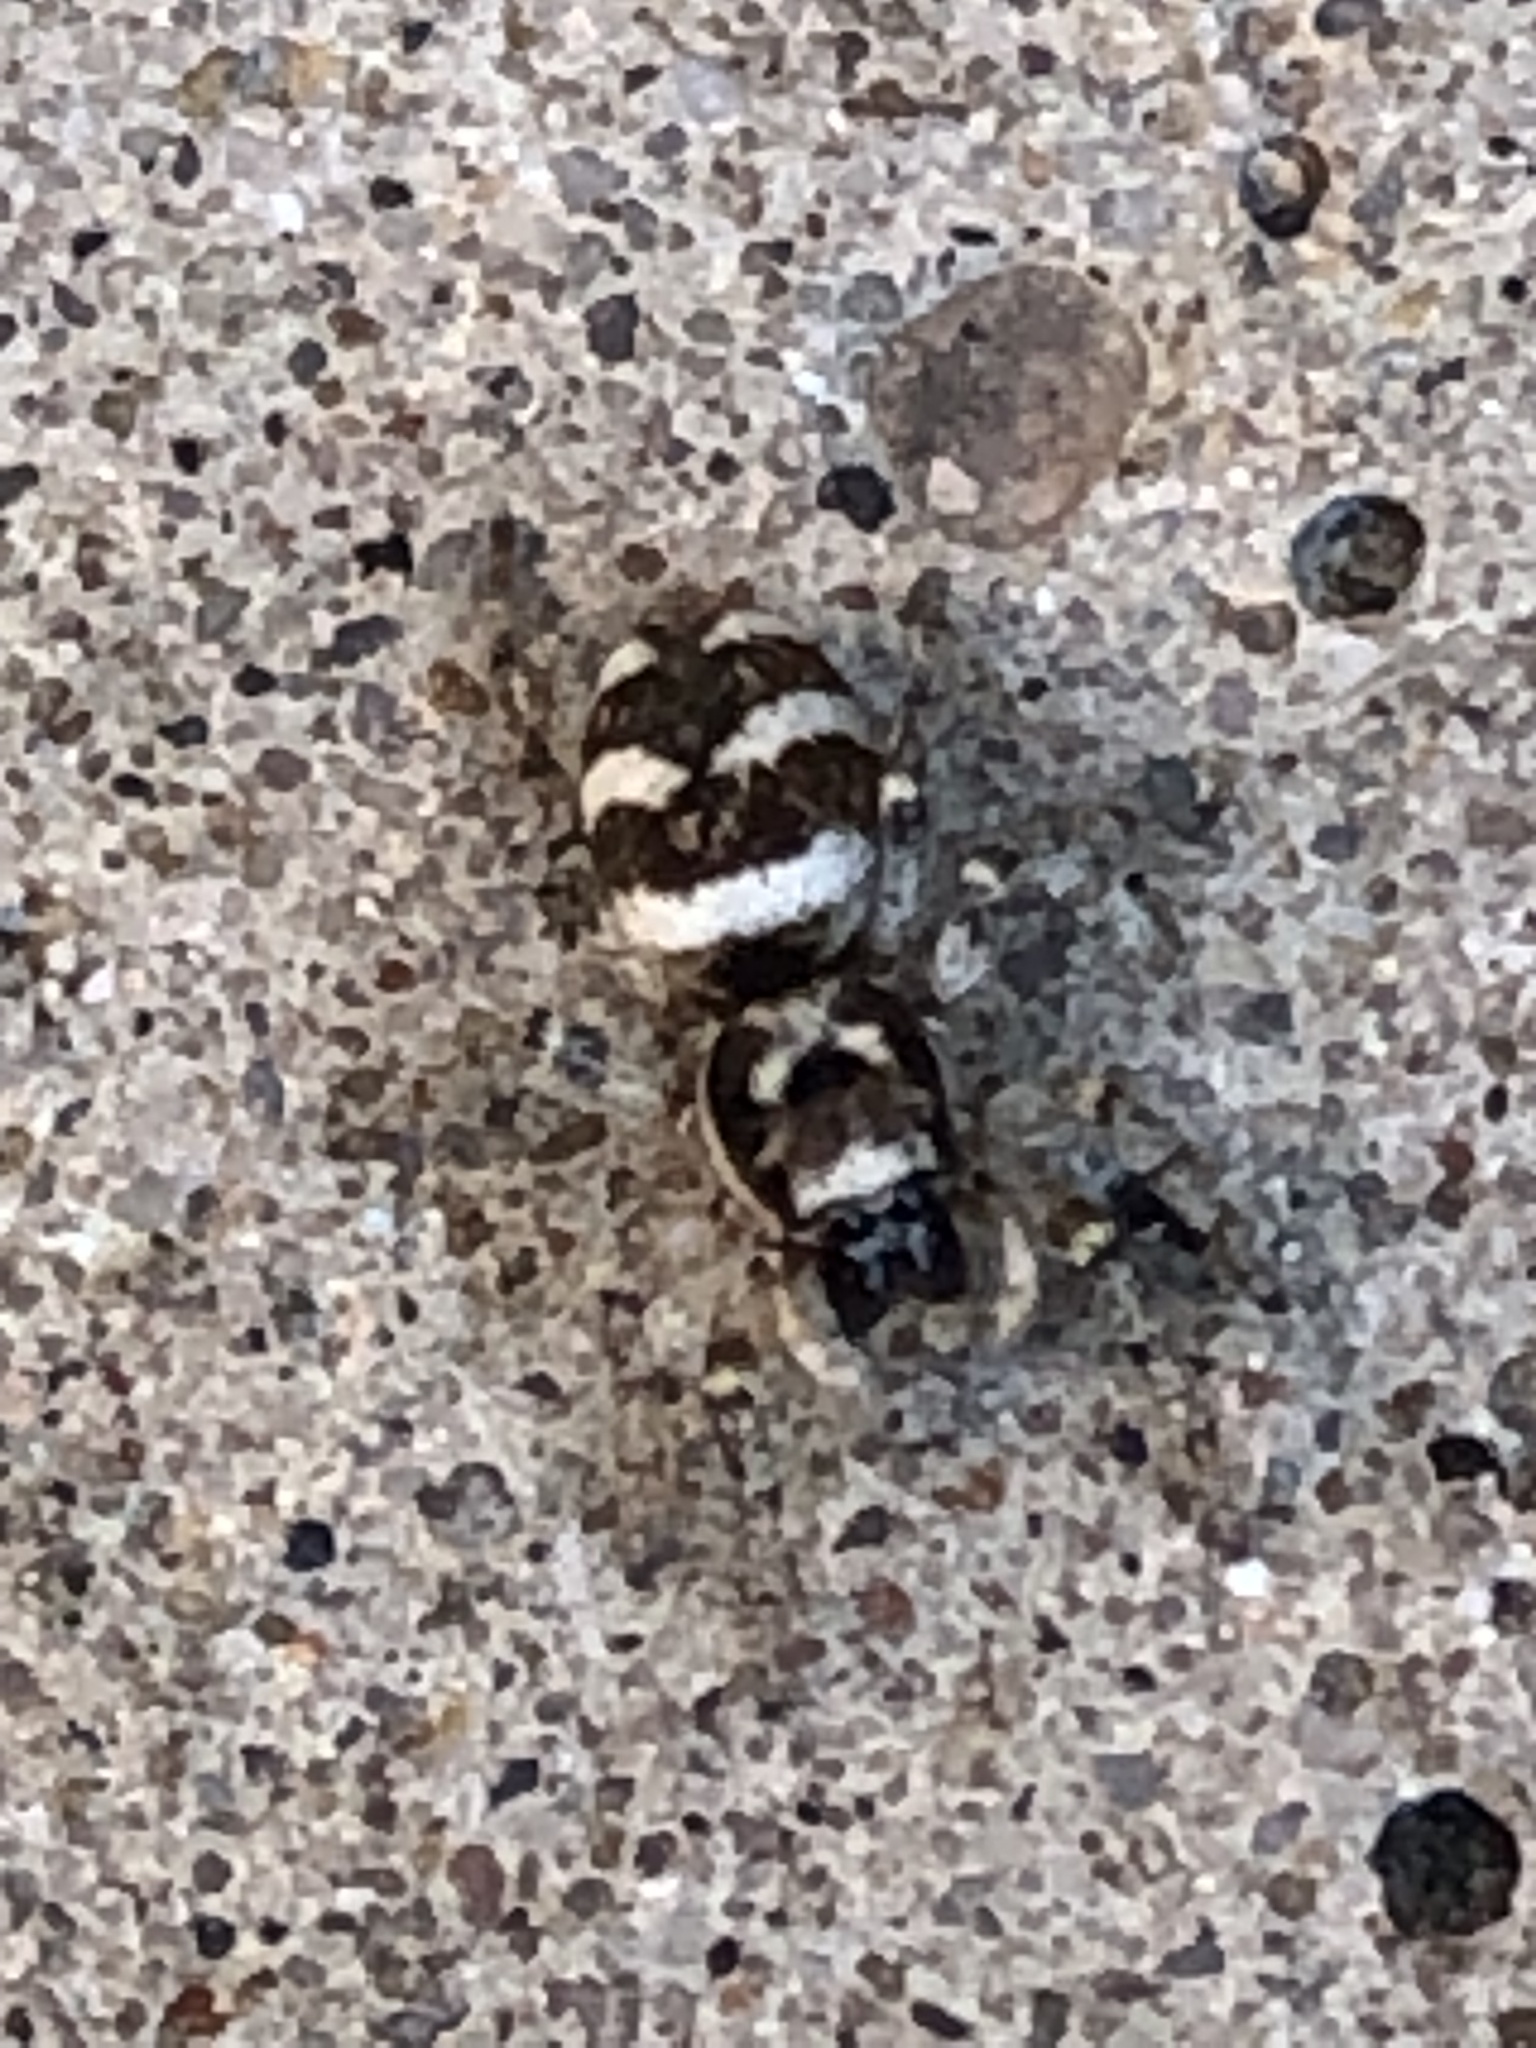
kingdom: Animalia
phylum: Arthropoda
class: Arachnida
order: Araneae
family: Salticidae
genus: Salticus
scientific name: Salticus scenicus
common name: Zebra jumper
